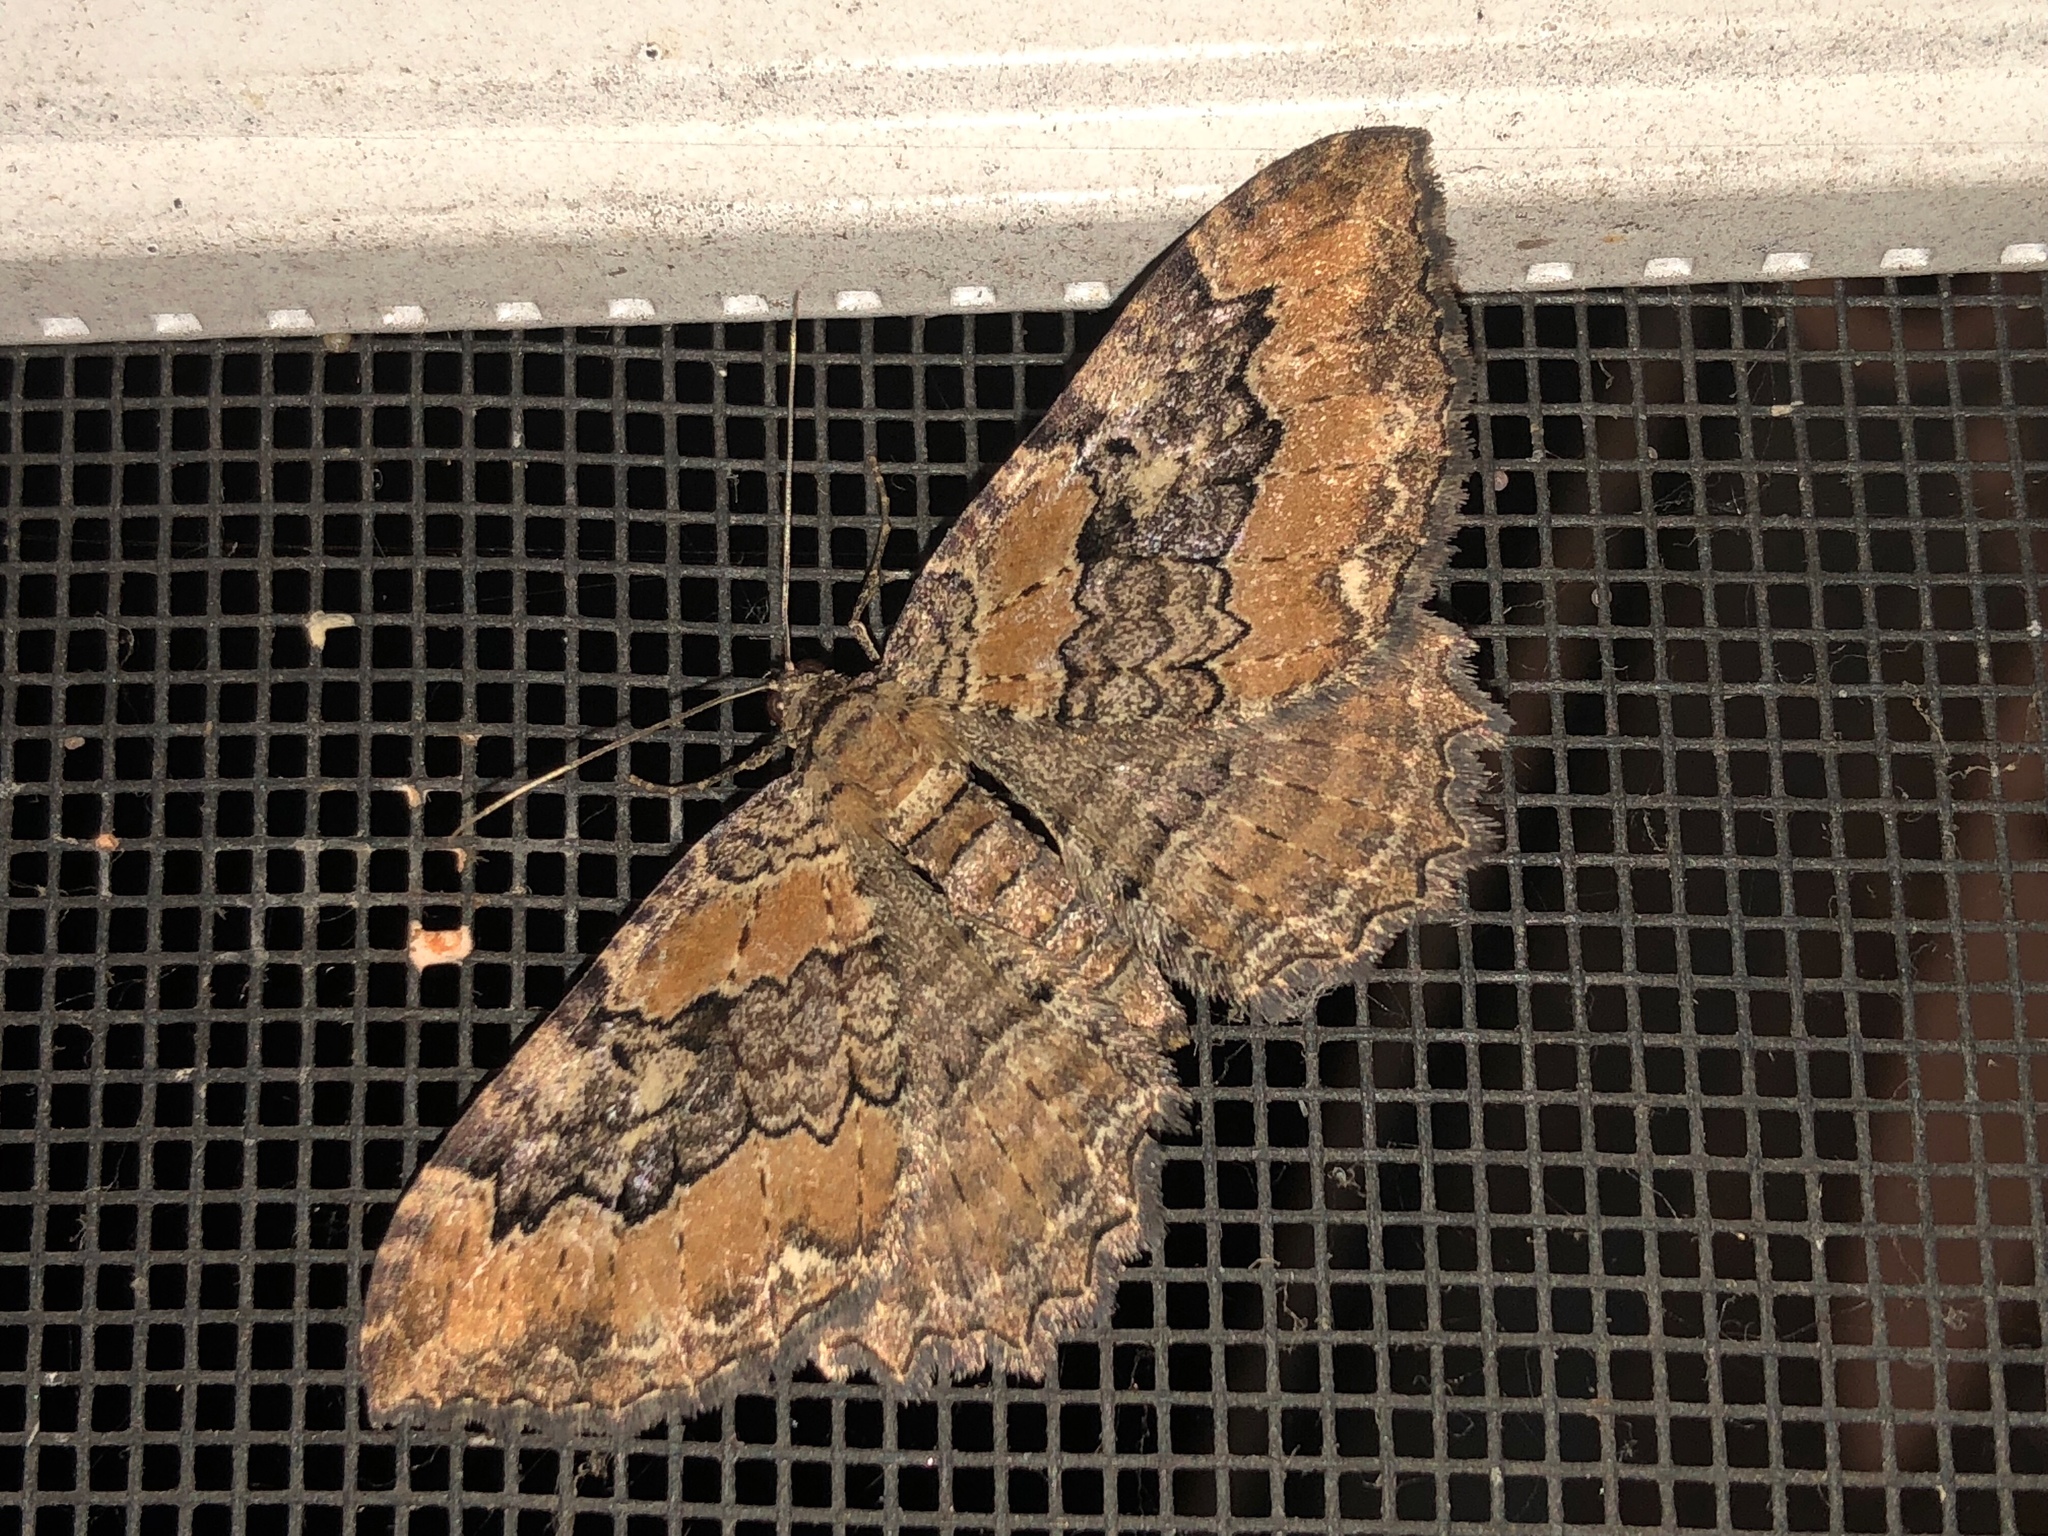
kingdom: Animalia
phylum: Arthropoda
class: Insecta
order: Lepidoptera
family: Geometridae
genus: Rheumaptera
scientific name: Rheumaptera
